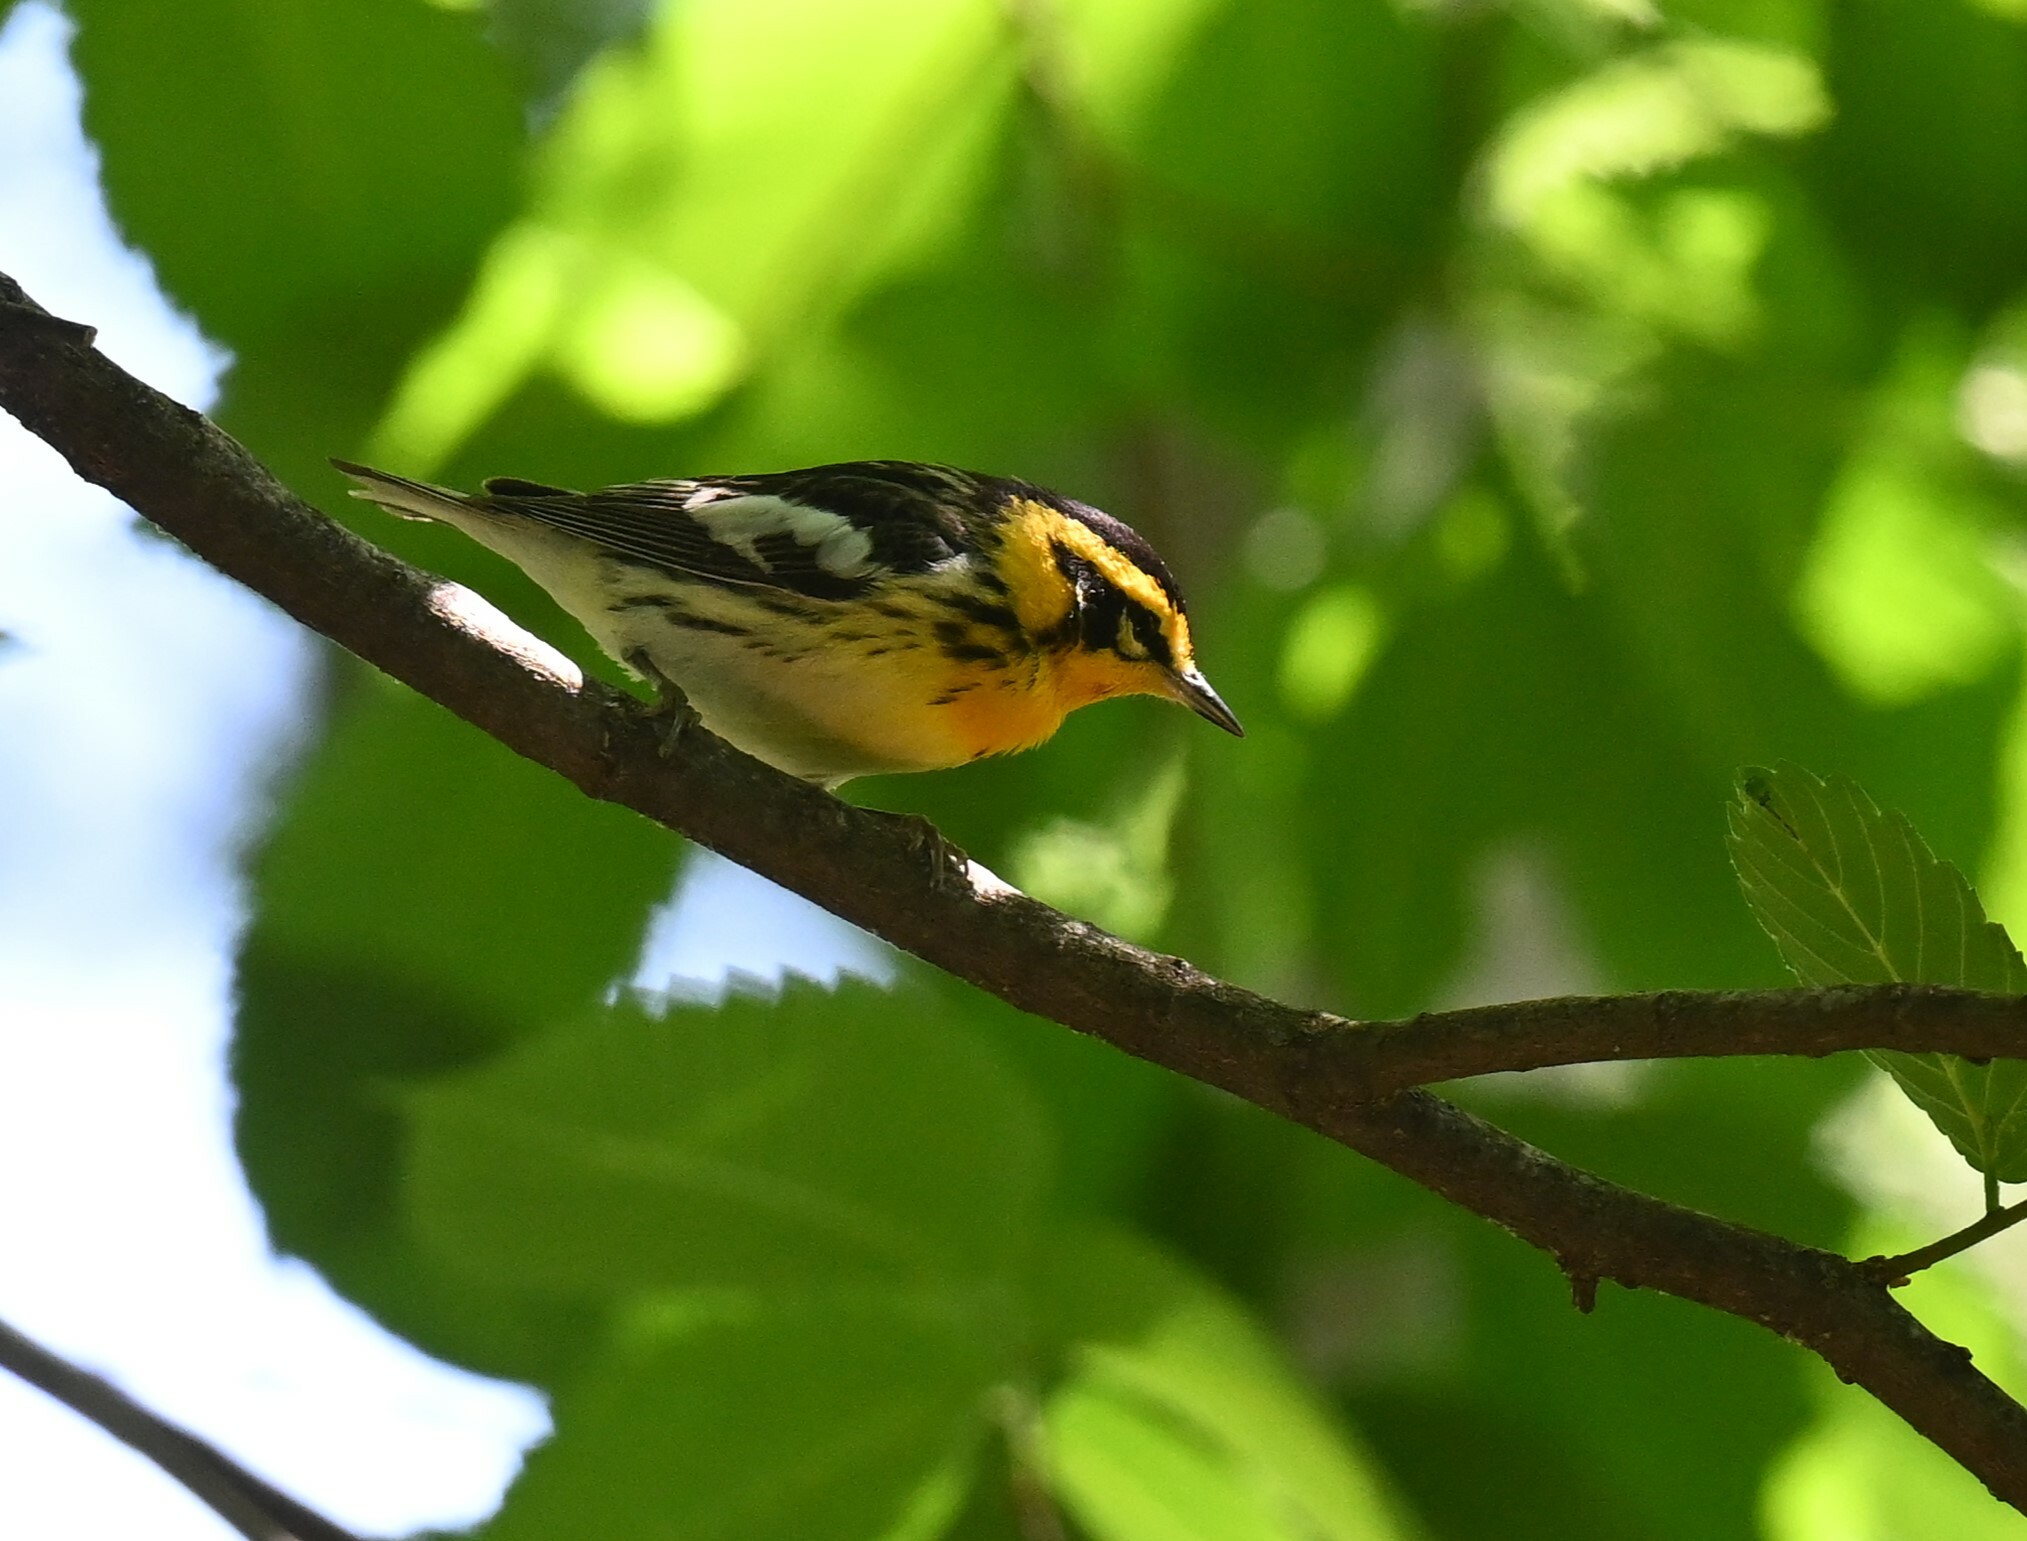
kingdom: Animalia
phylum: Chordata
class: Aves
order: Passeriformes
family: Parulidae
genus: Setophaga
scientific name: Setophaga fusca
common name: Blackburnian warbler
